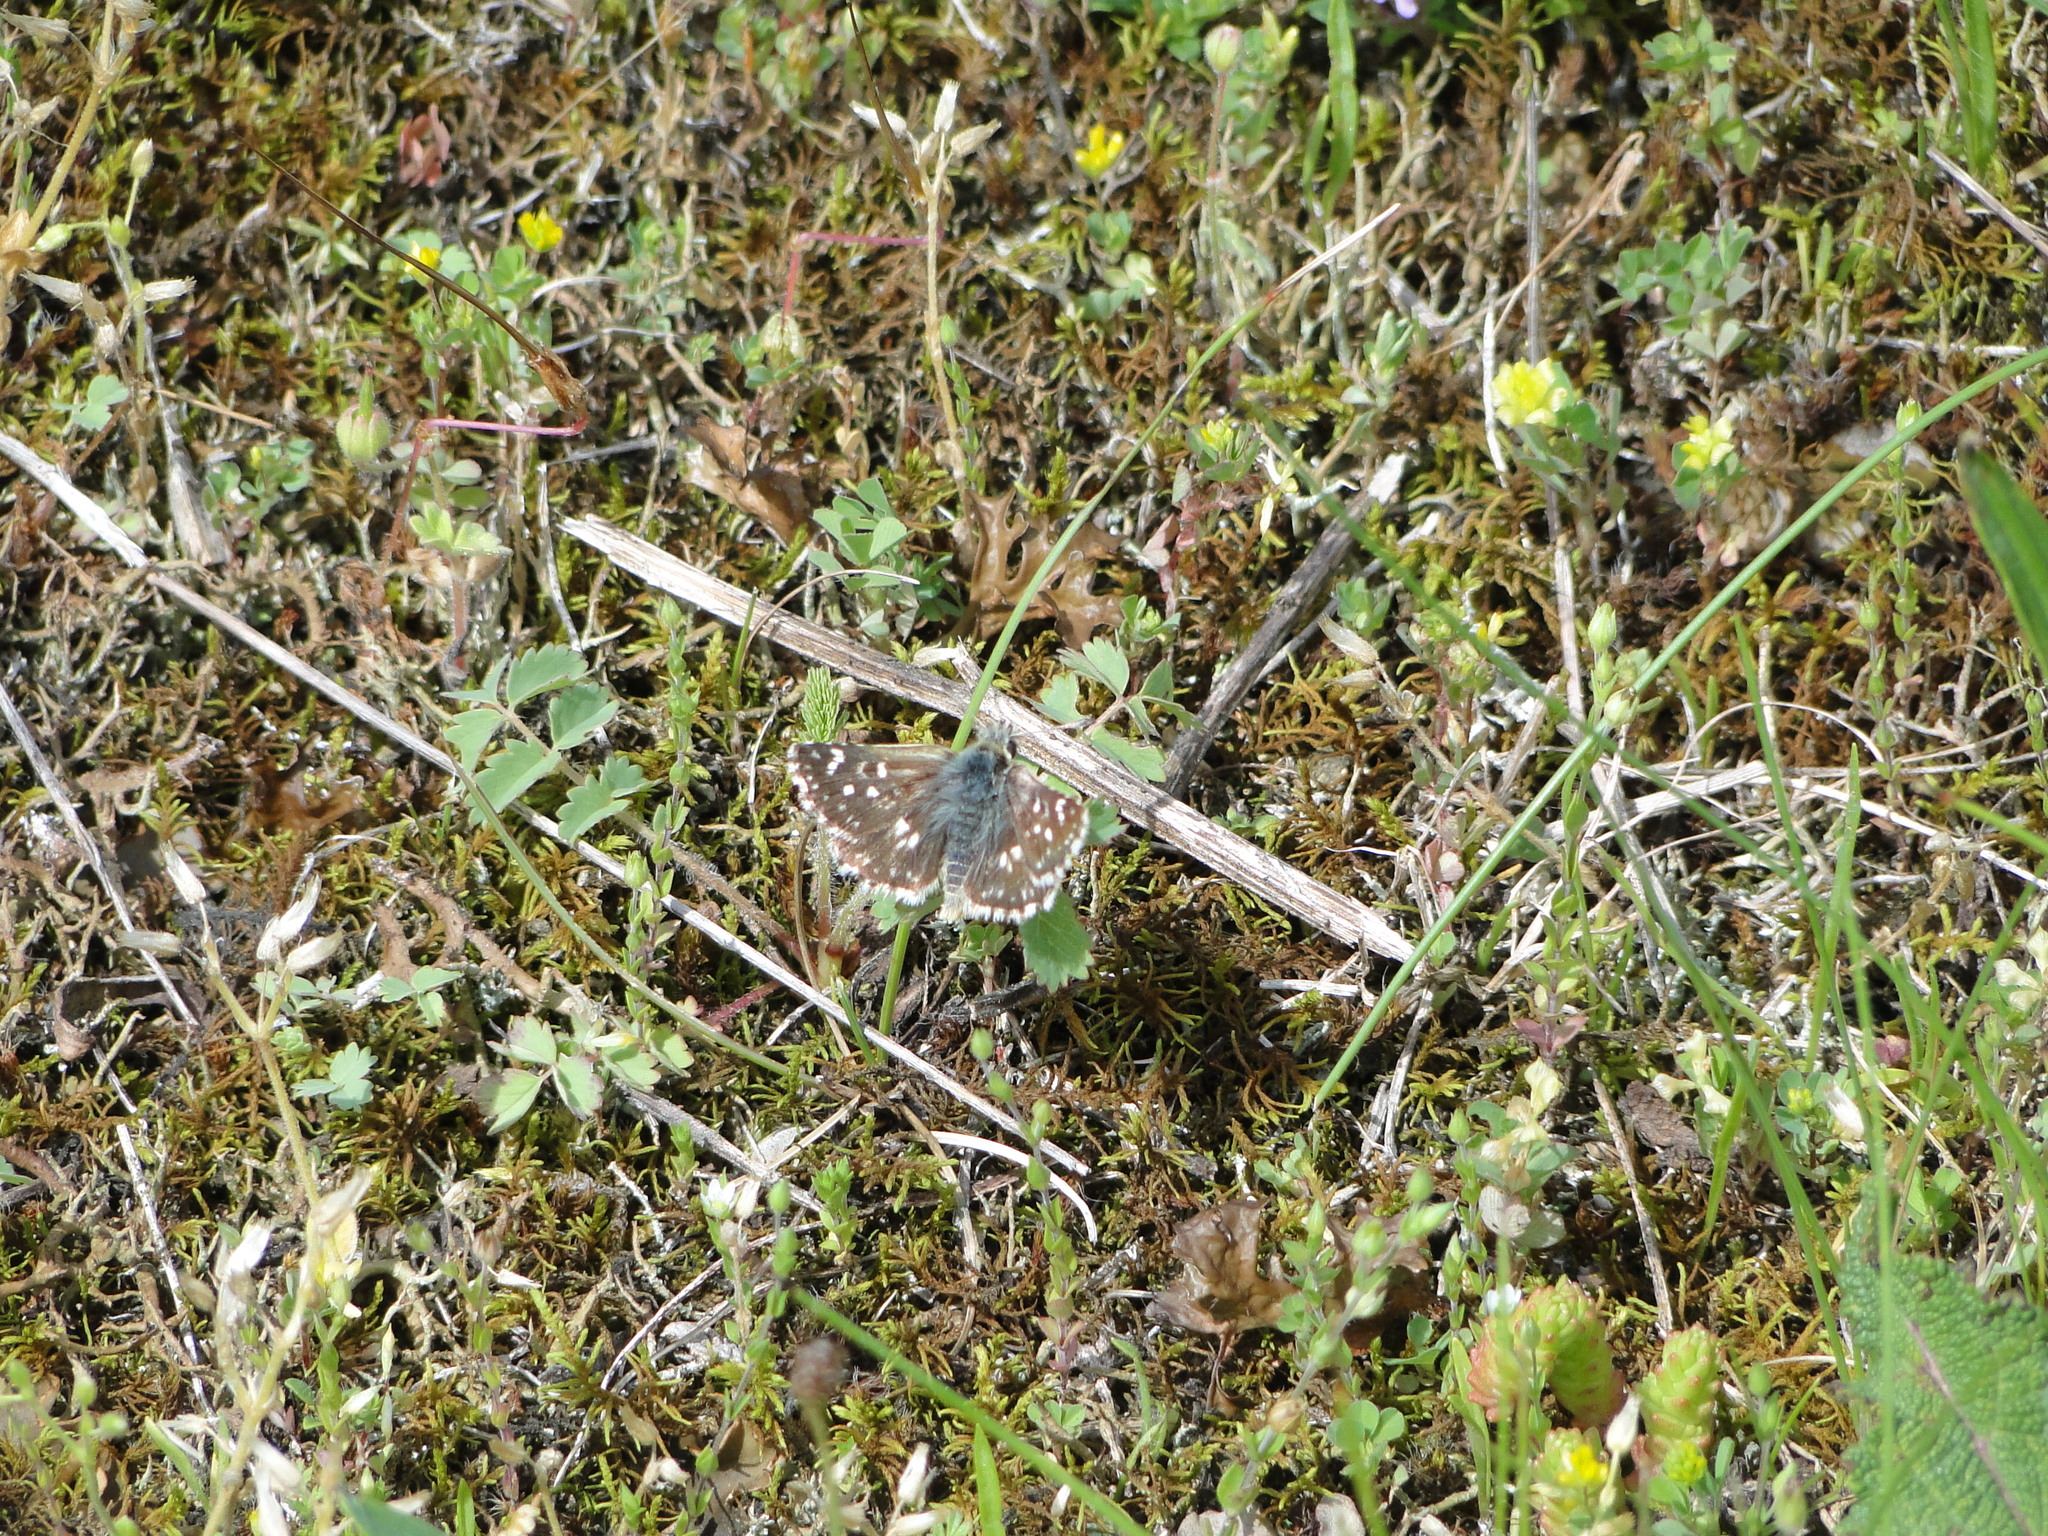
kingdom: Animalia
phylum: Arthropoda
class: Insecta
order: Lepidoptera
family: Hesperiidae
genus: Spialia
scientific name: Spialia sertorius
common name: Red underwing skipper
